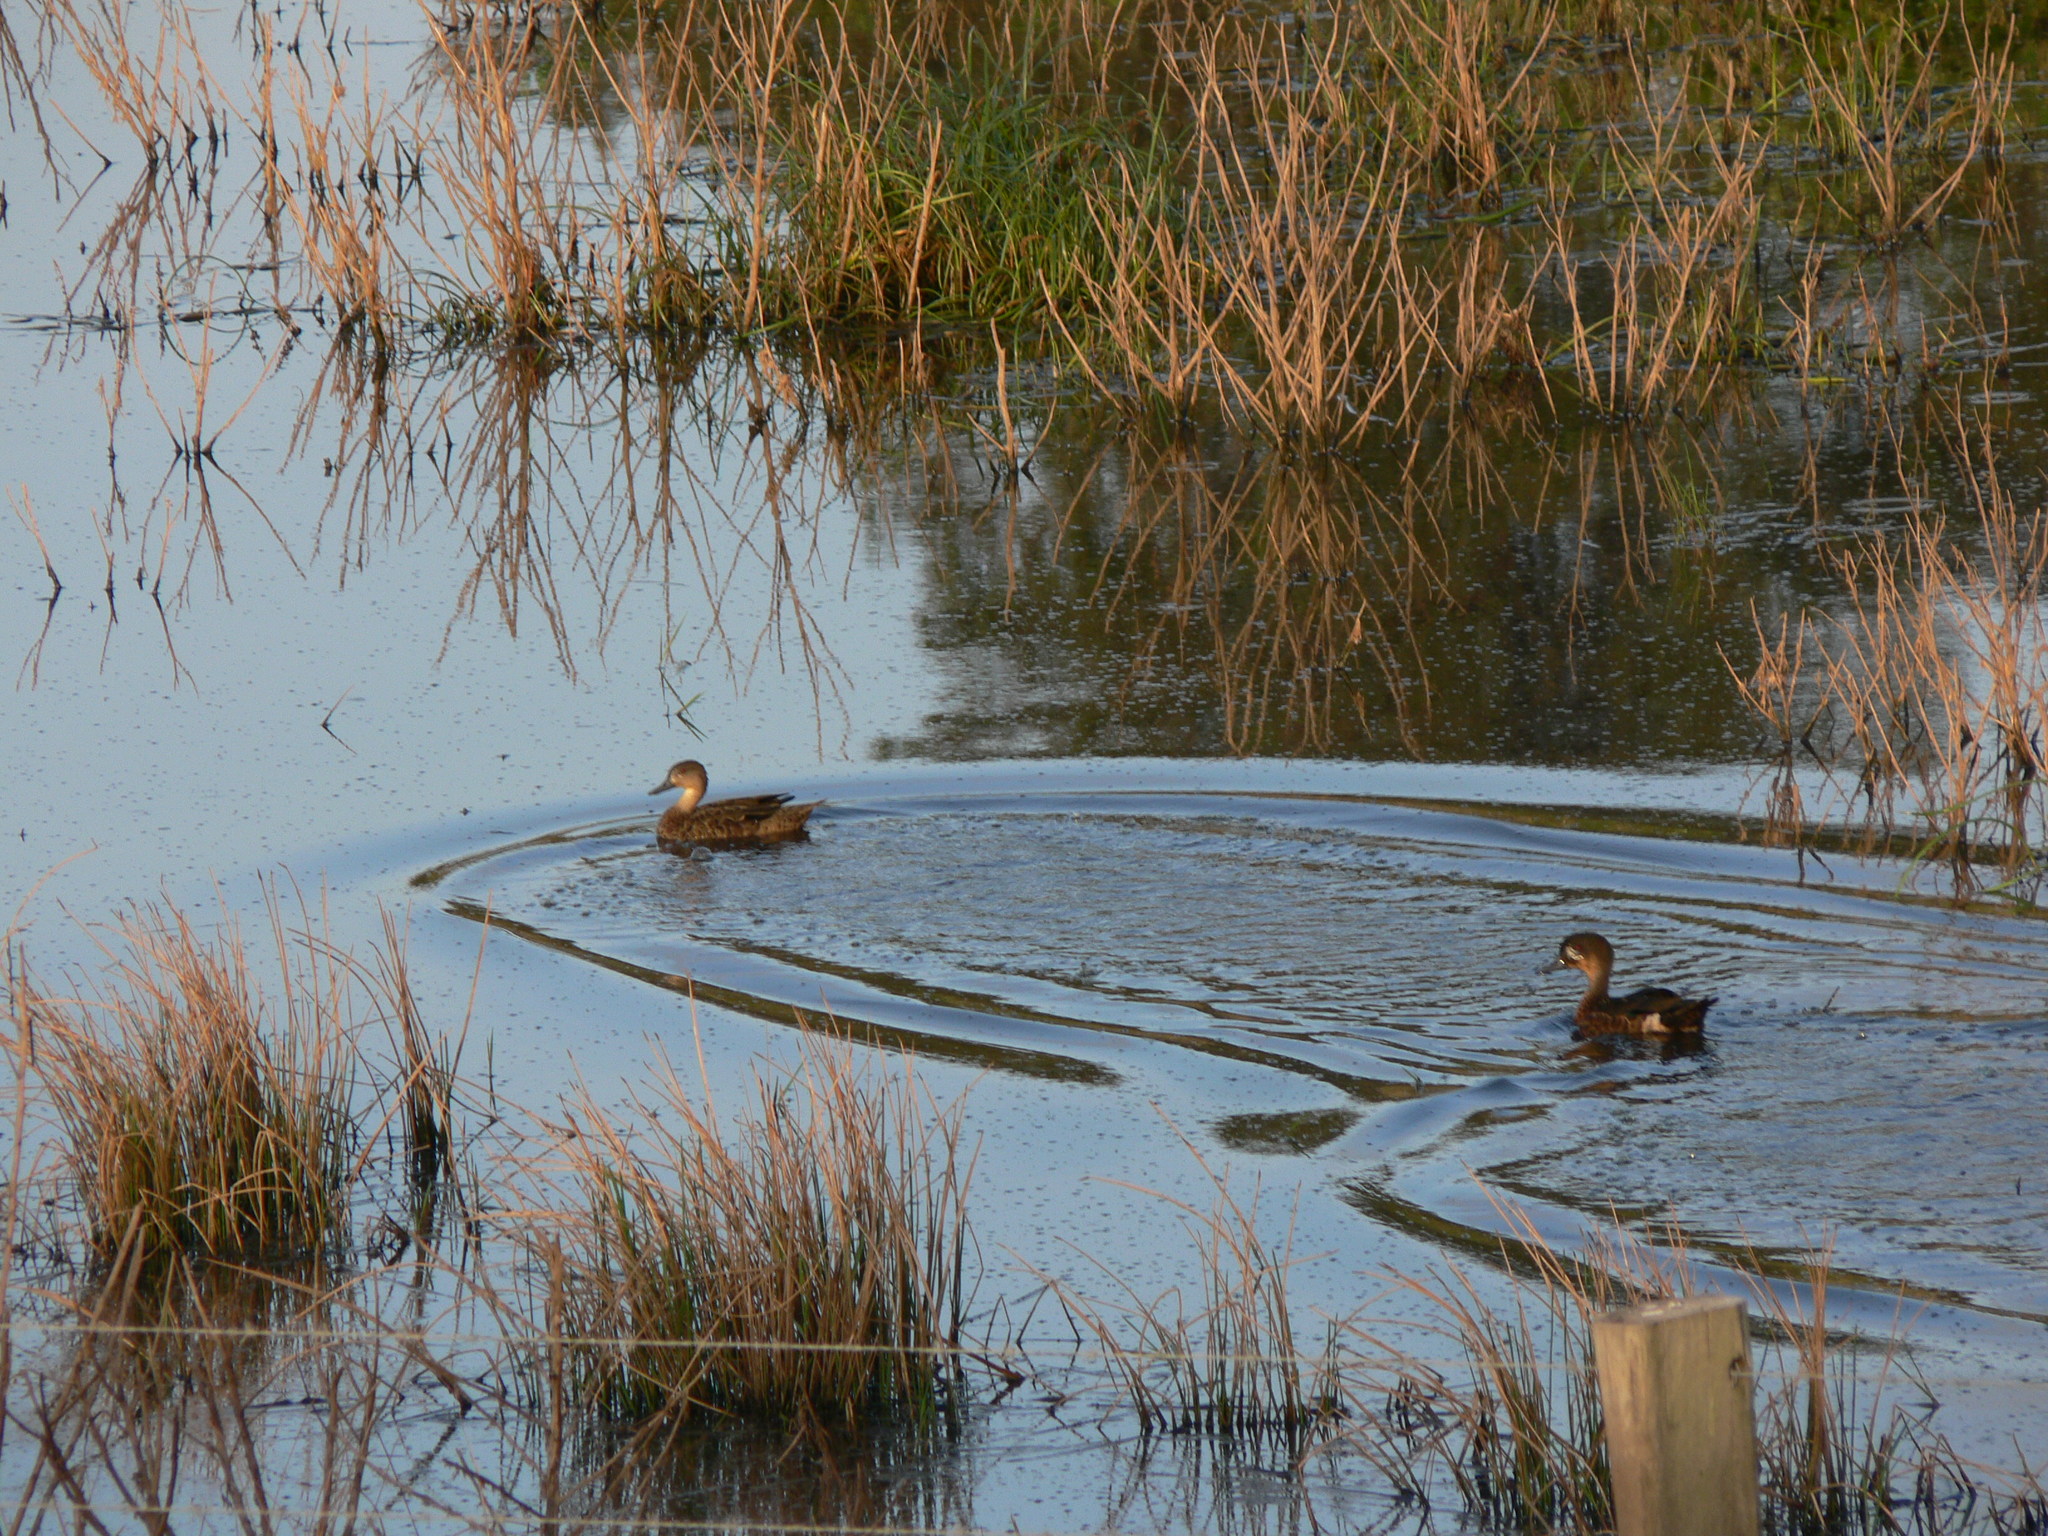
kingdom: Animalia
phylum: Chordata
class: Aves
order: Anseriformes
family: Anatidae
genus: Anas
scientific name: Anas gracilis
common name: Grey teal
